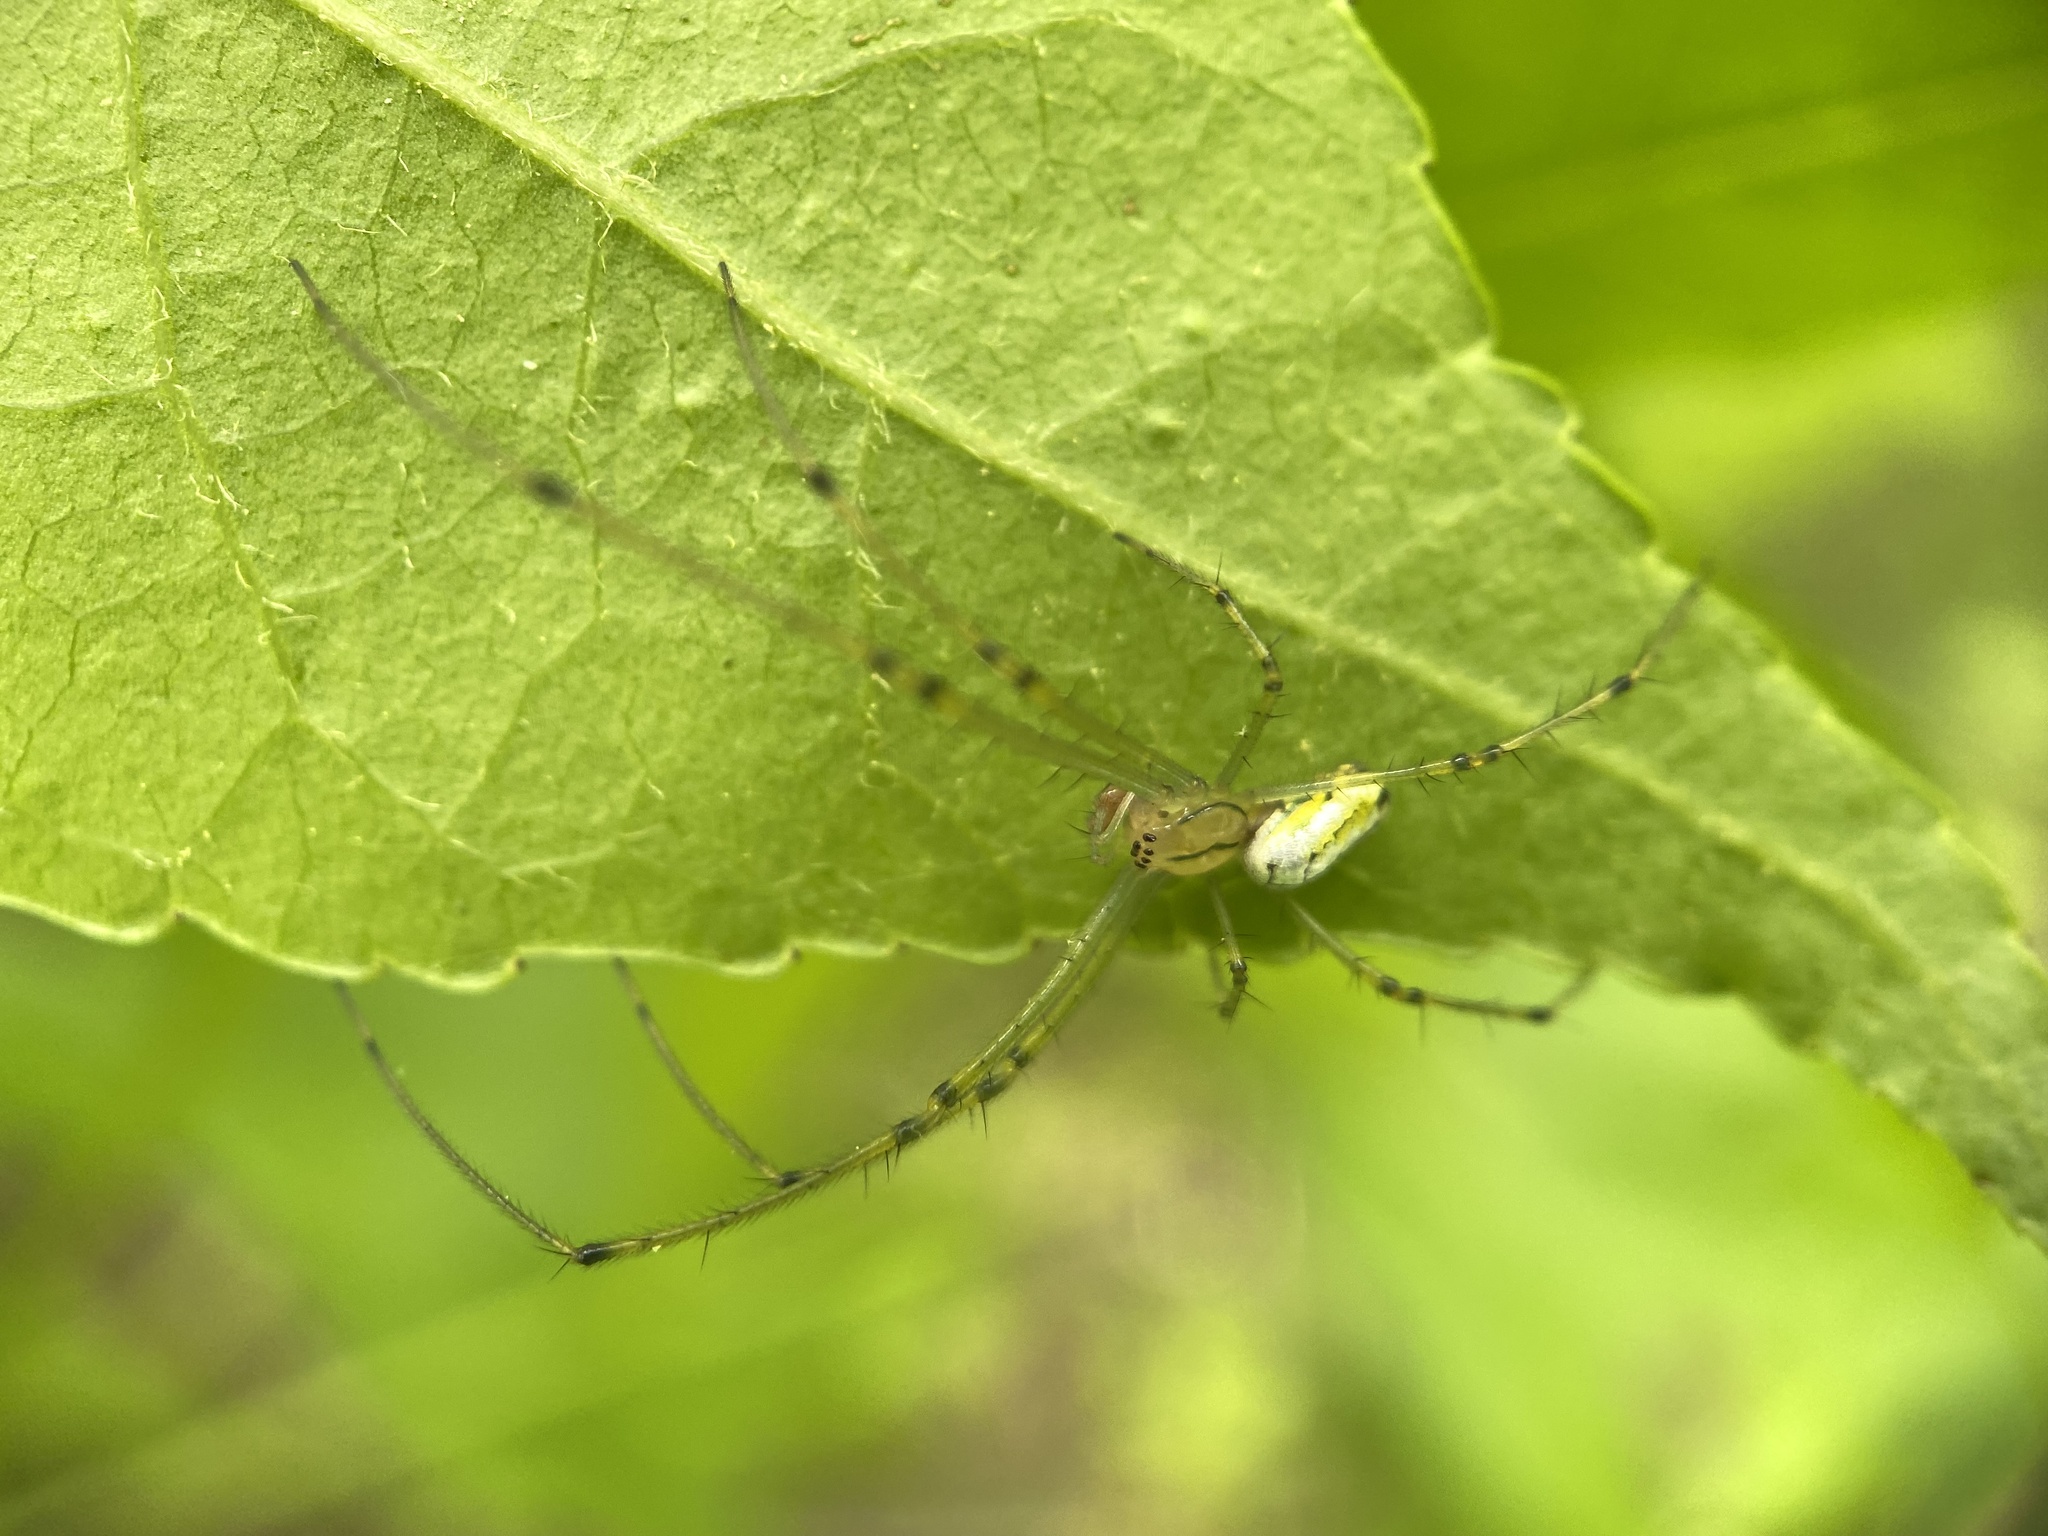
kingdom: Animalia
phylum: Arthropoda
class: Arachnida
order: Araneae
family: Tetragnathidae
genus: Leucauge
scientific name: Leucauge venusta
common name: Longjawed orb weavers
